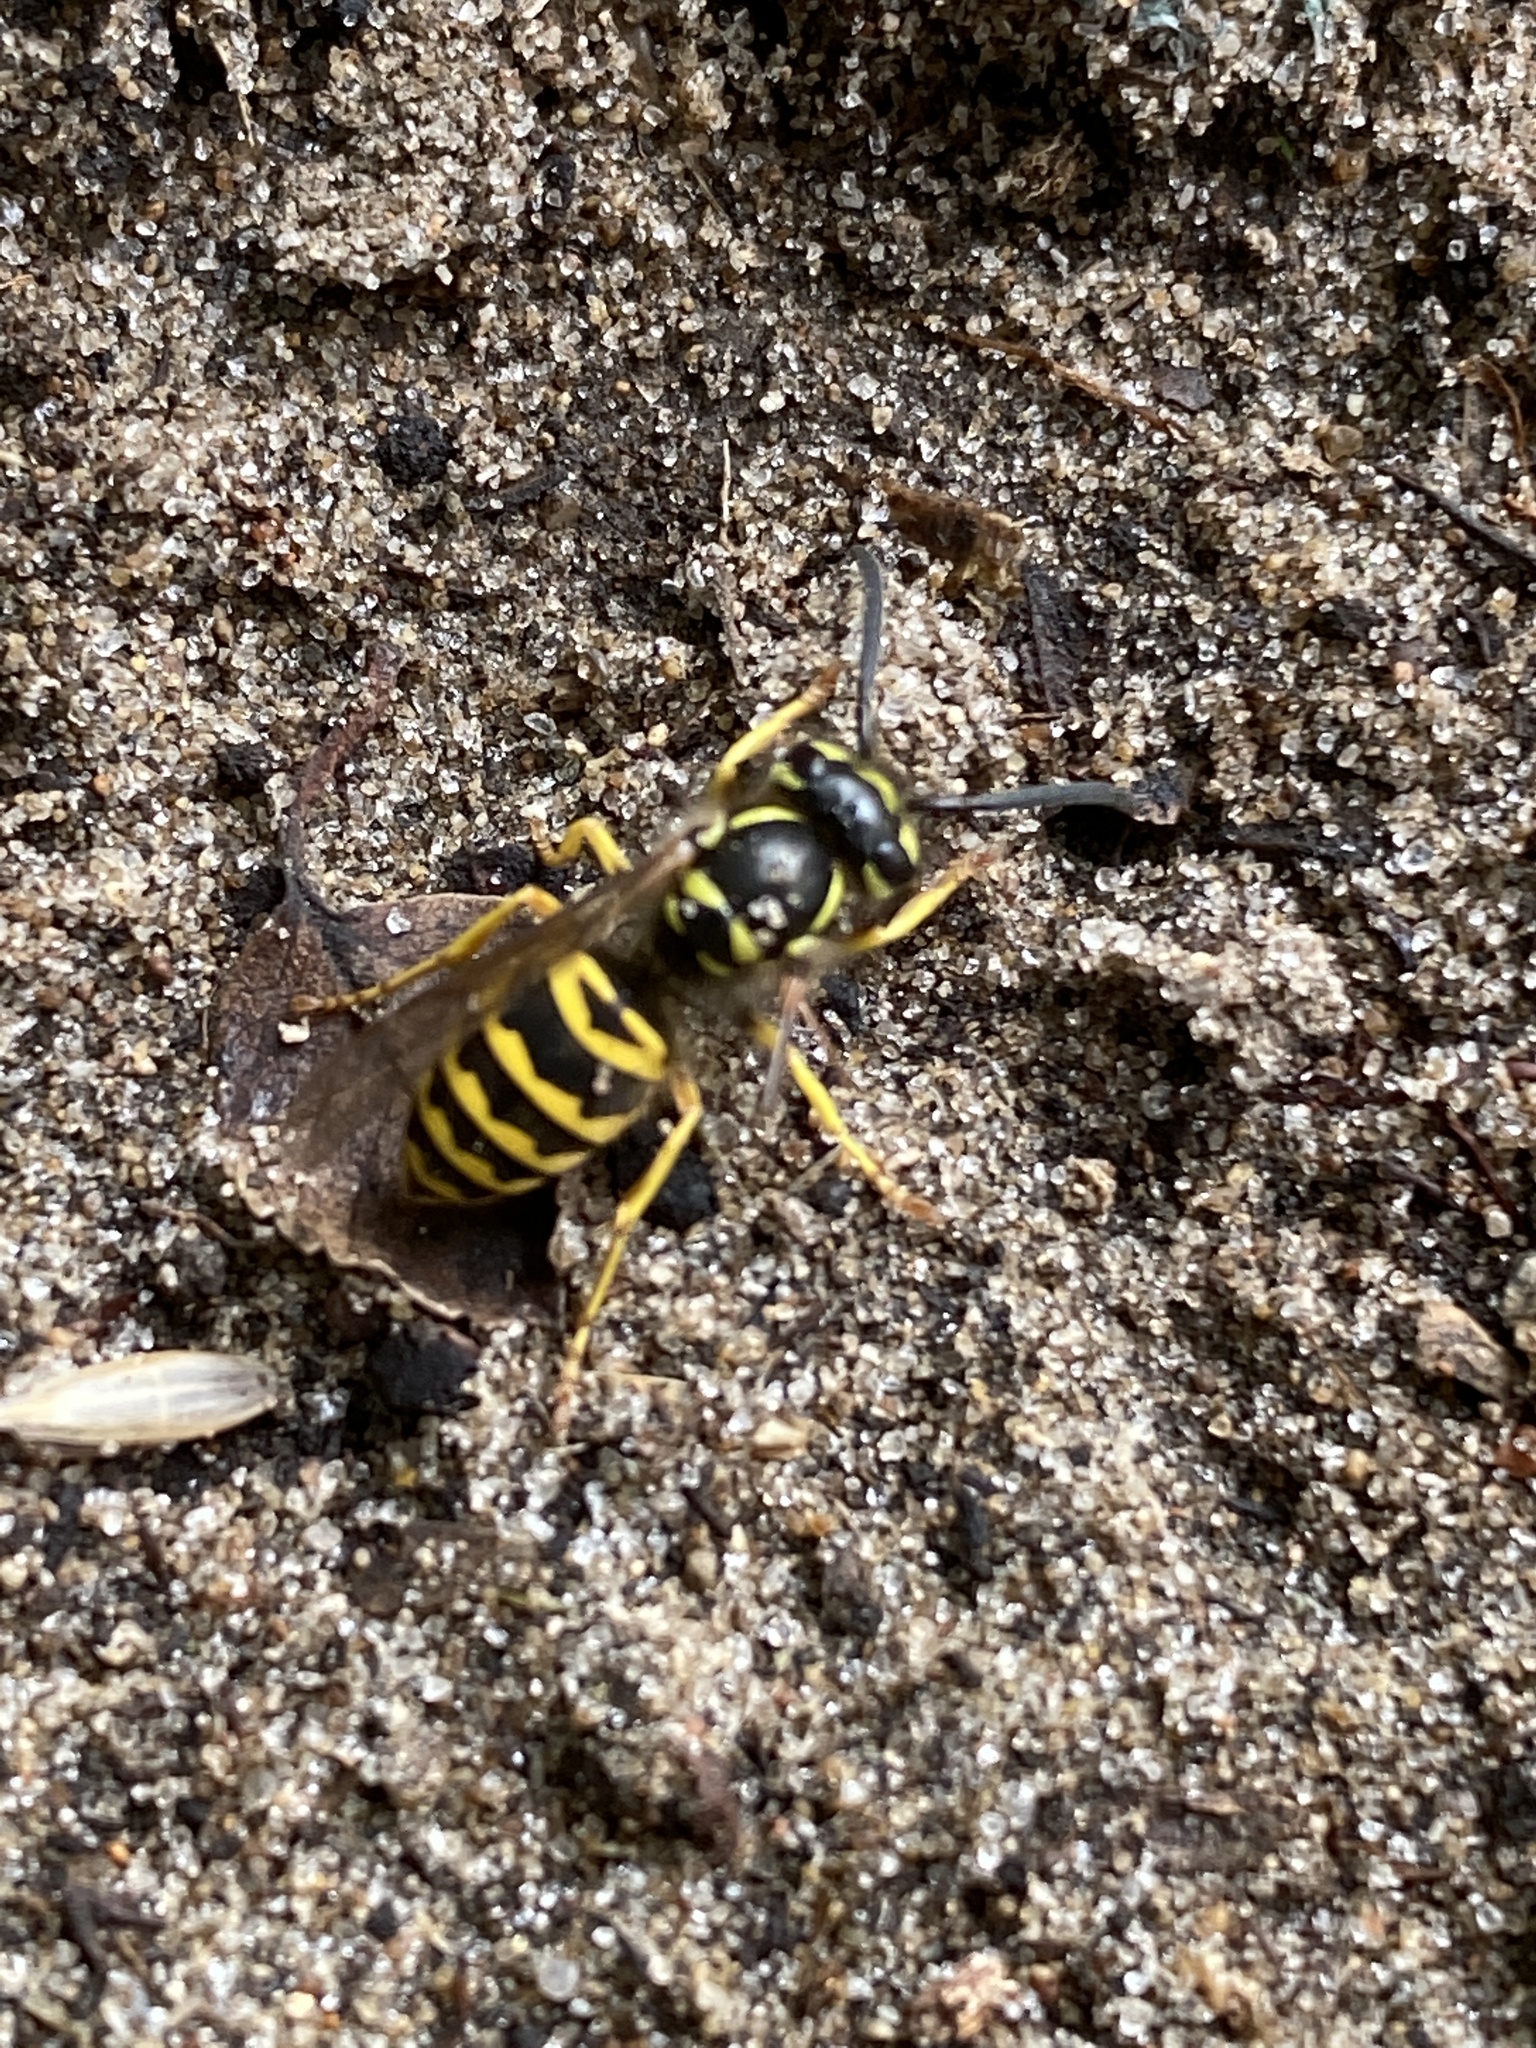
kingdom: Animalia
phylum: Arthropoda
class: Insecta
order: Hymenoptera
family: Vespidae
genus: Vespula
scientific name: Vespula maculifrons
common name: Eastern yellowjacket
